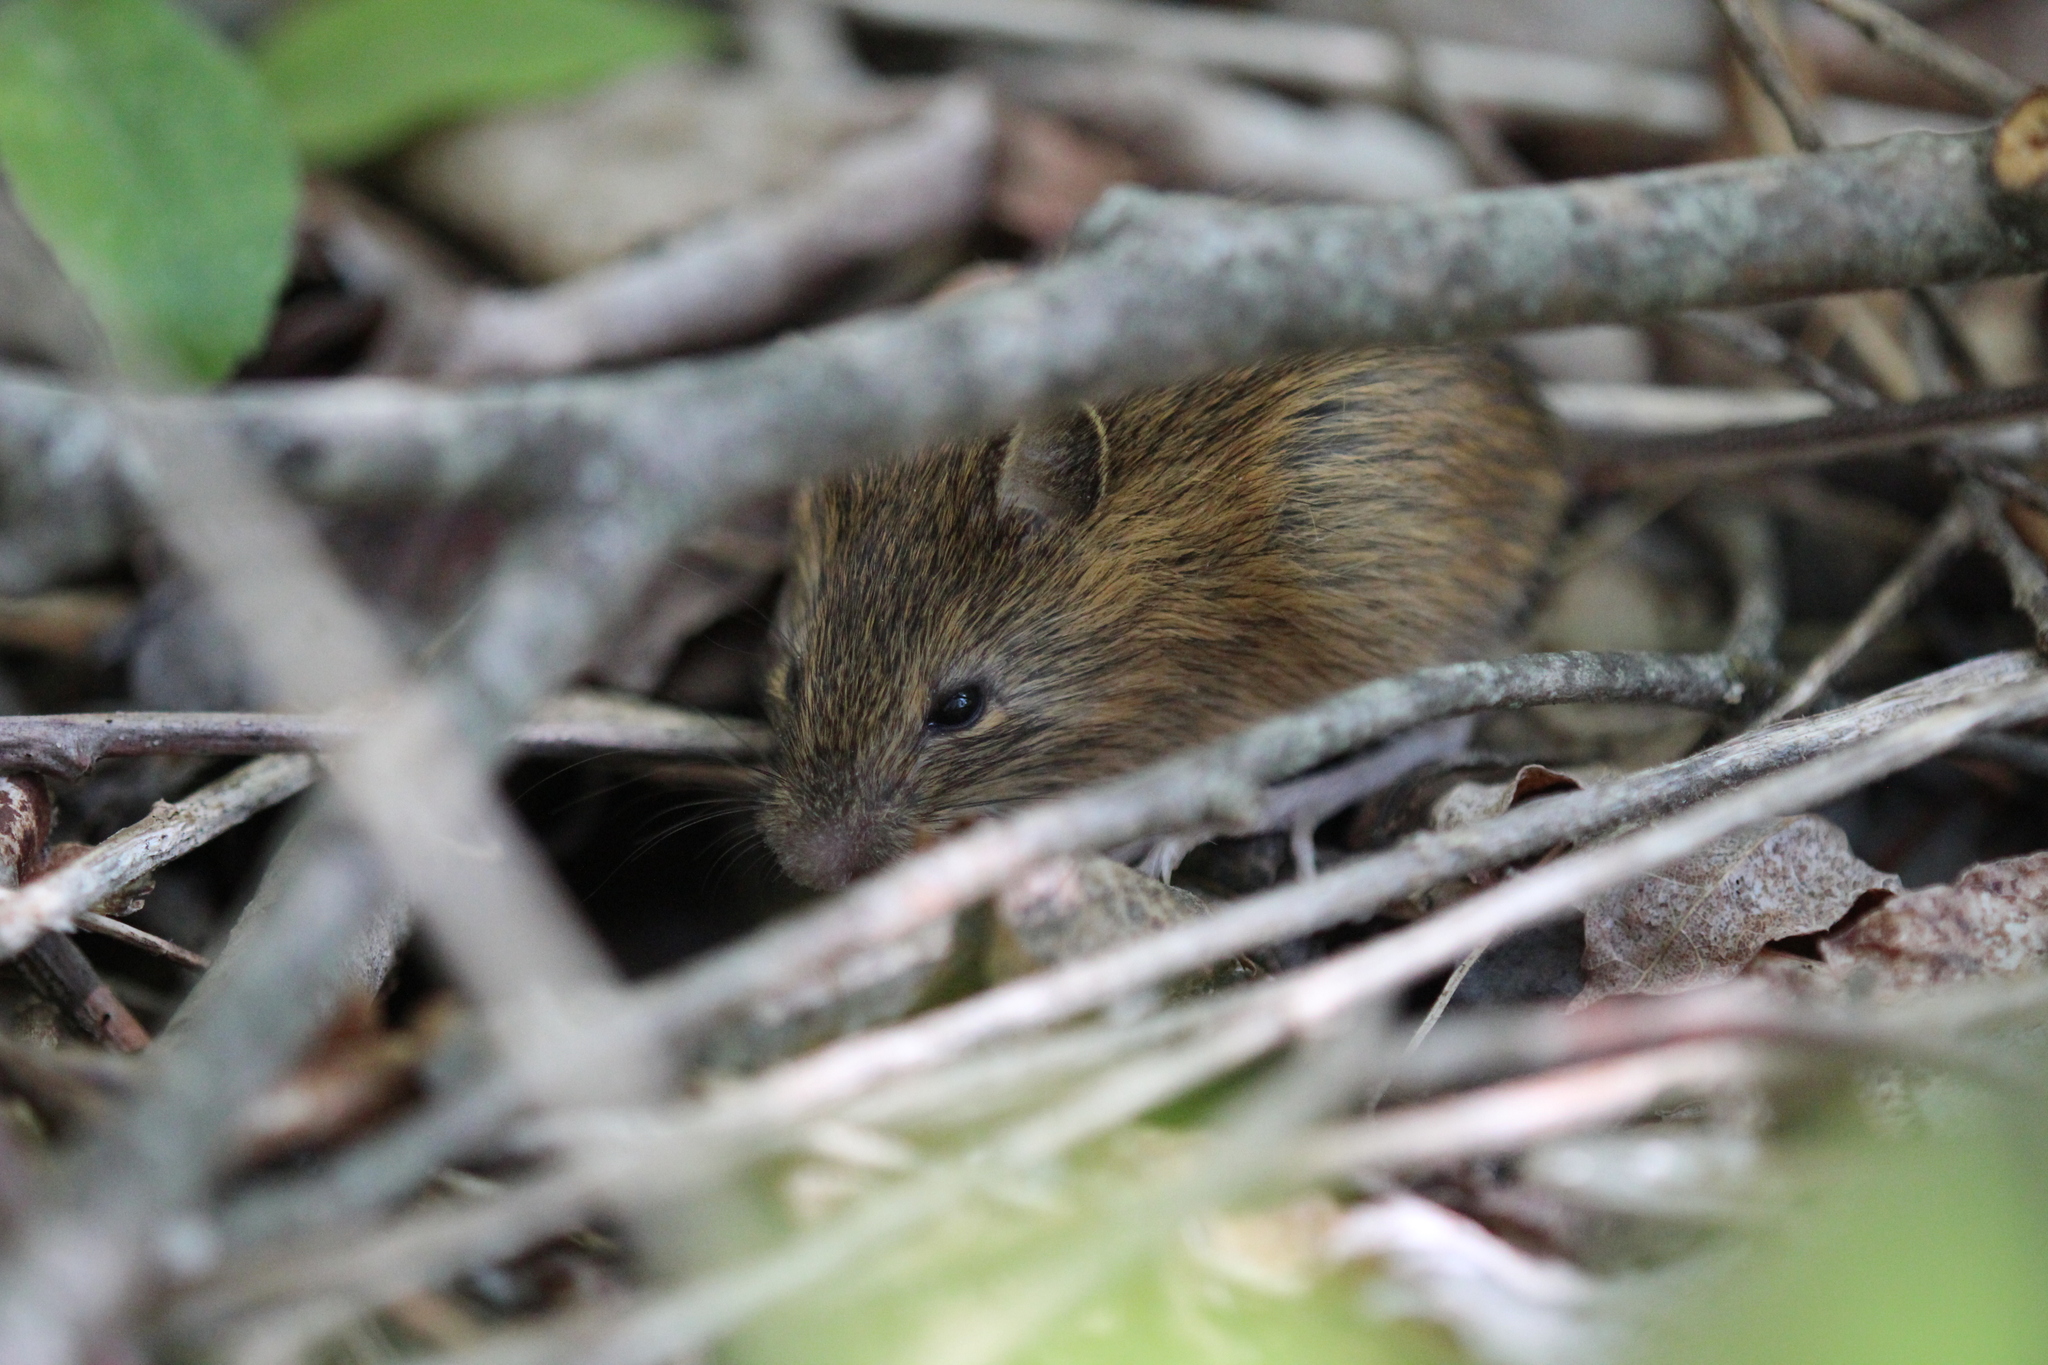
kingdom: Animalia
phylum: Chordata
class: Mammalia
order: Rodentia
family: Dipodidae
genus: Zapus
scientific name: Zapus hudsonius
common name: Meadow jumping mouse
